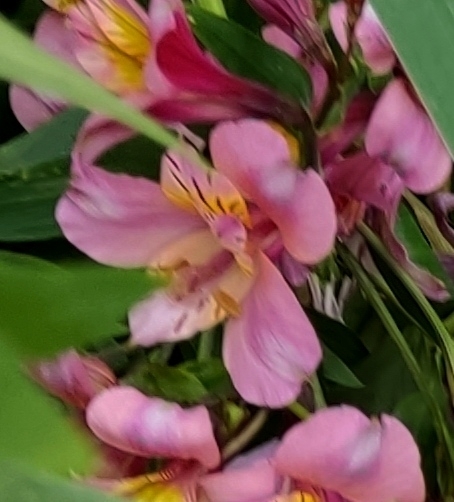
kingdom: Plantae
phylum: Tracheophyta
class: Liliopsida
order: Liliales
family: Alstroemeriaceae
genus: Alstroemeria
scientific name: Alstroemeria aurea
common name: Peruvian lily
